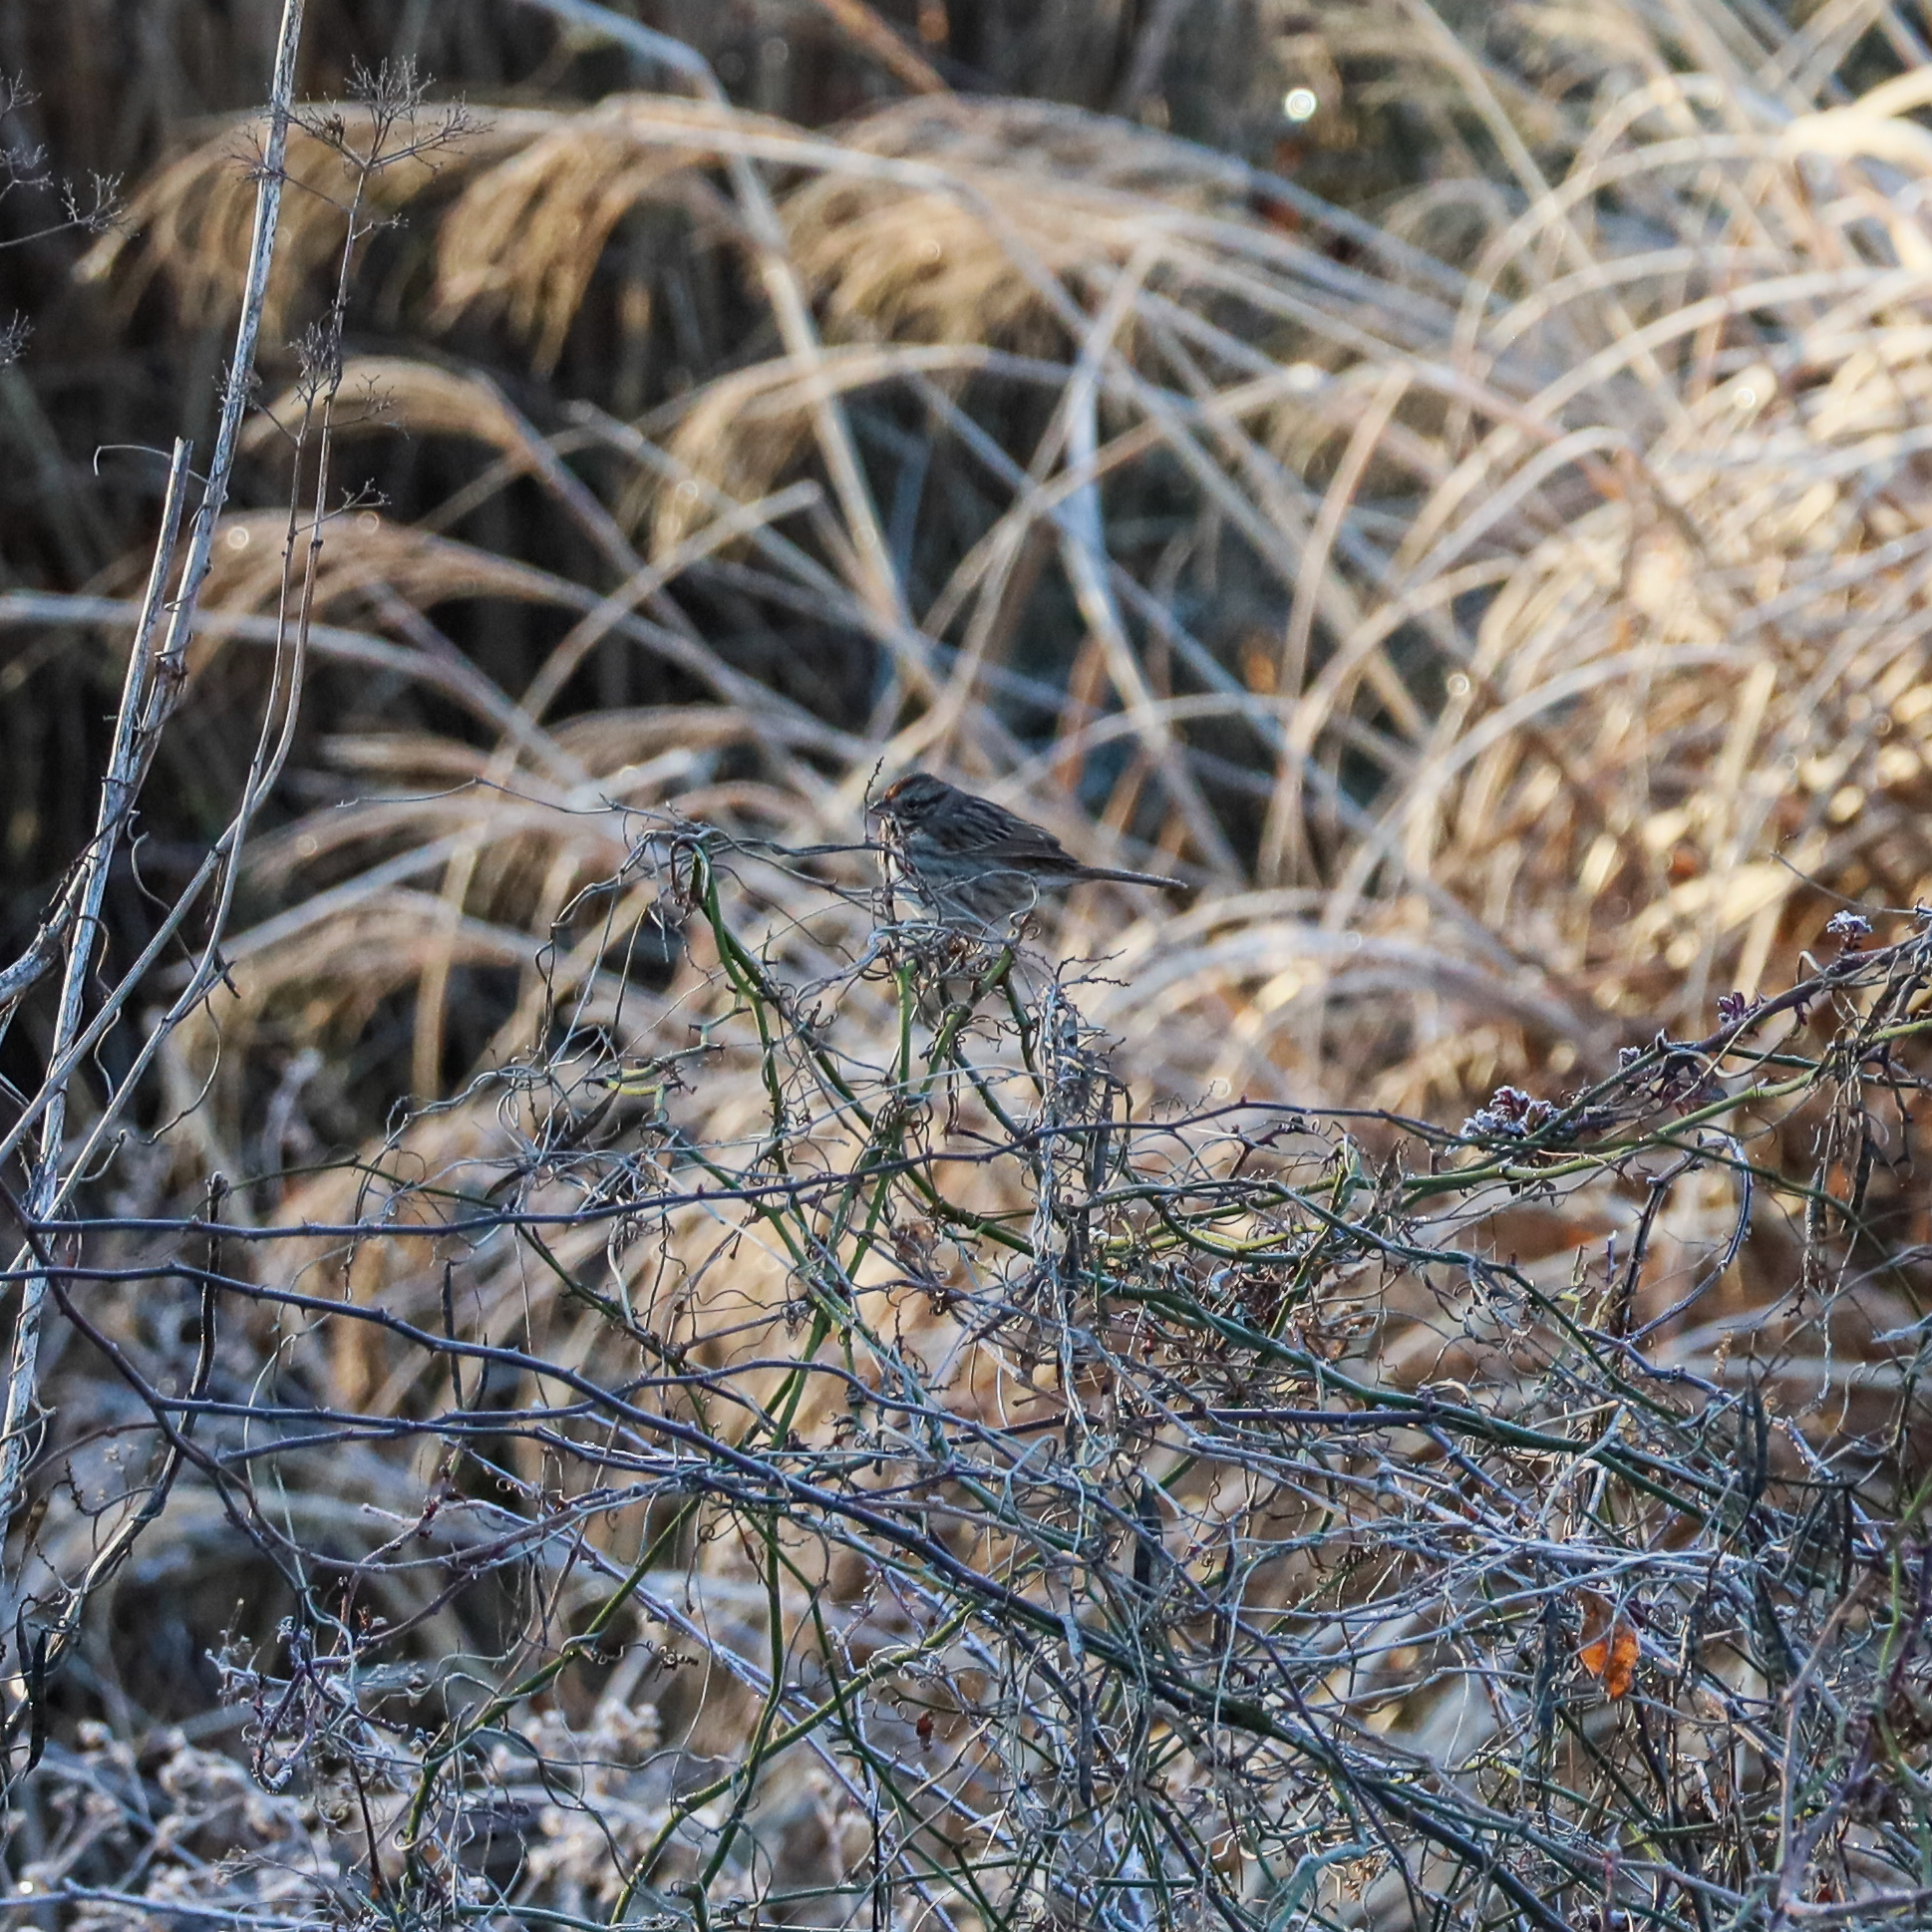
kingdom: Animalia
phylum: Chordata
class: Aves
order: Passeriformes
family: Passerellidae
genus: Melospiza
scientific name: Melospiza melodia
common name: Song sparrow
